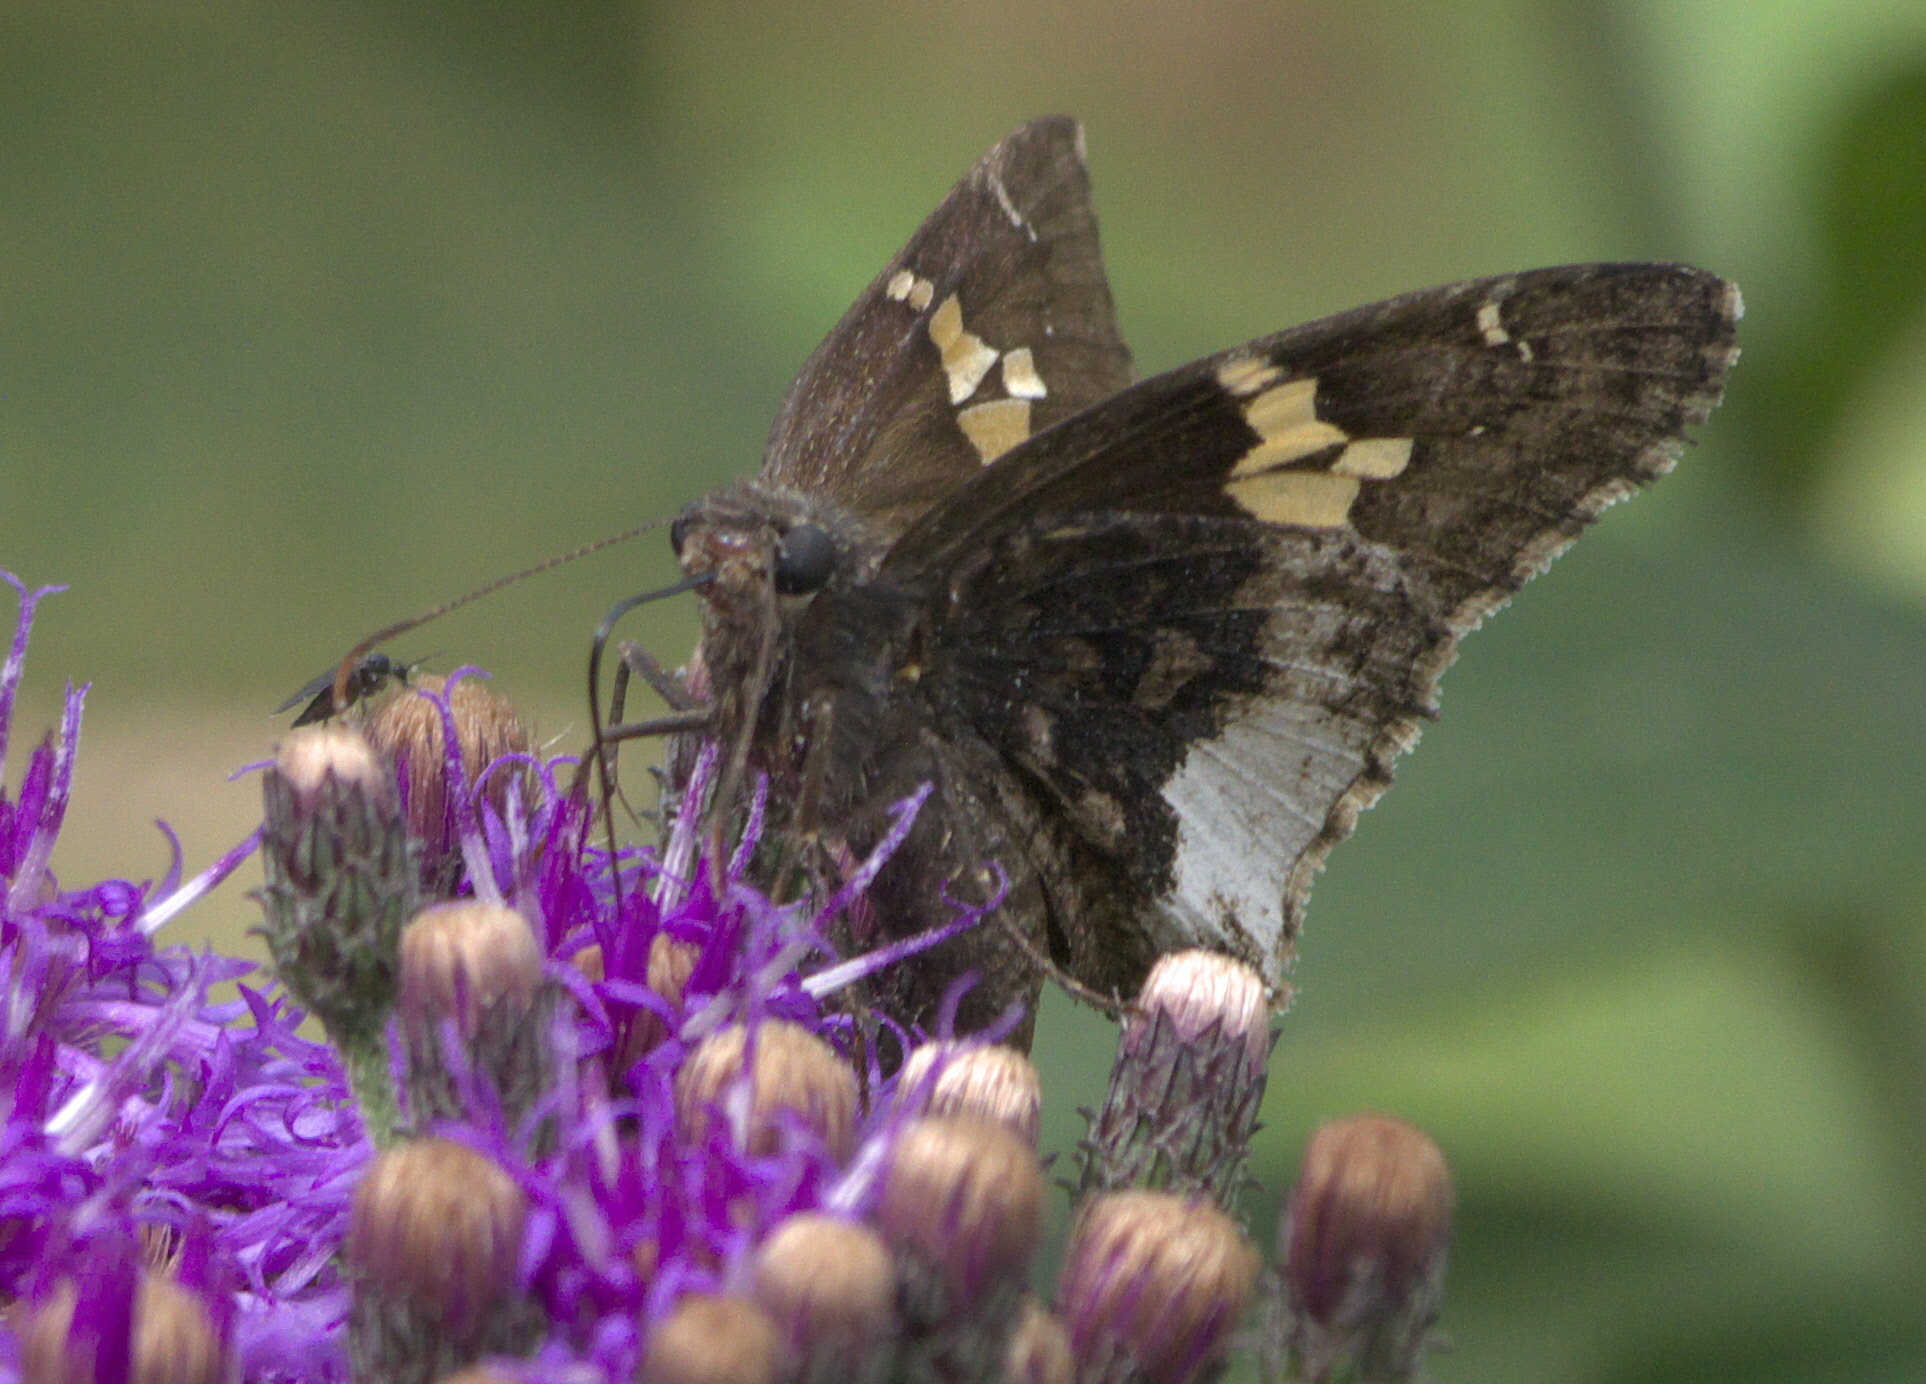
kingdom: Animalia
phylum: Arthropoda
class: Insecta
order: Lepidoptera
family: Hesperiidae
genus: Thorybes
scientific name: Thorybes lyciades
